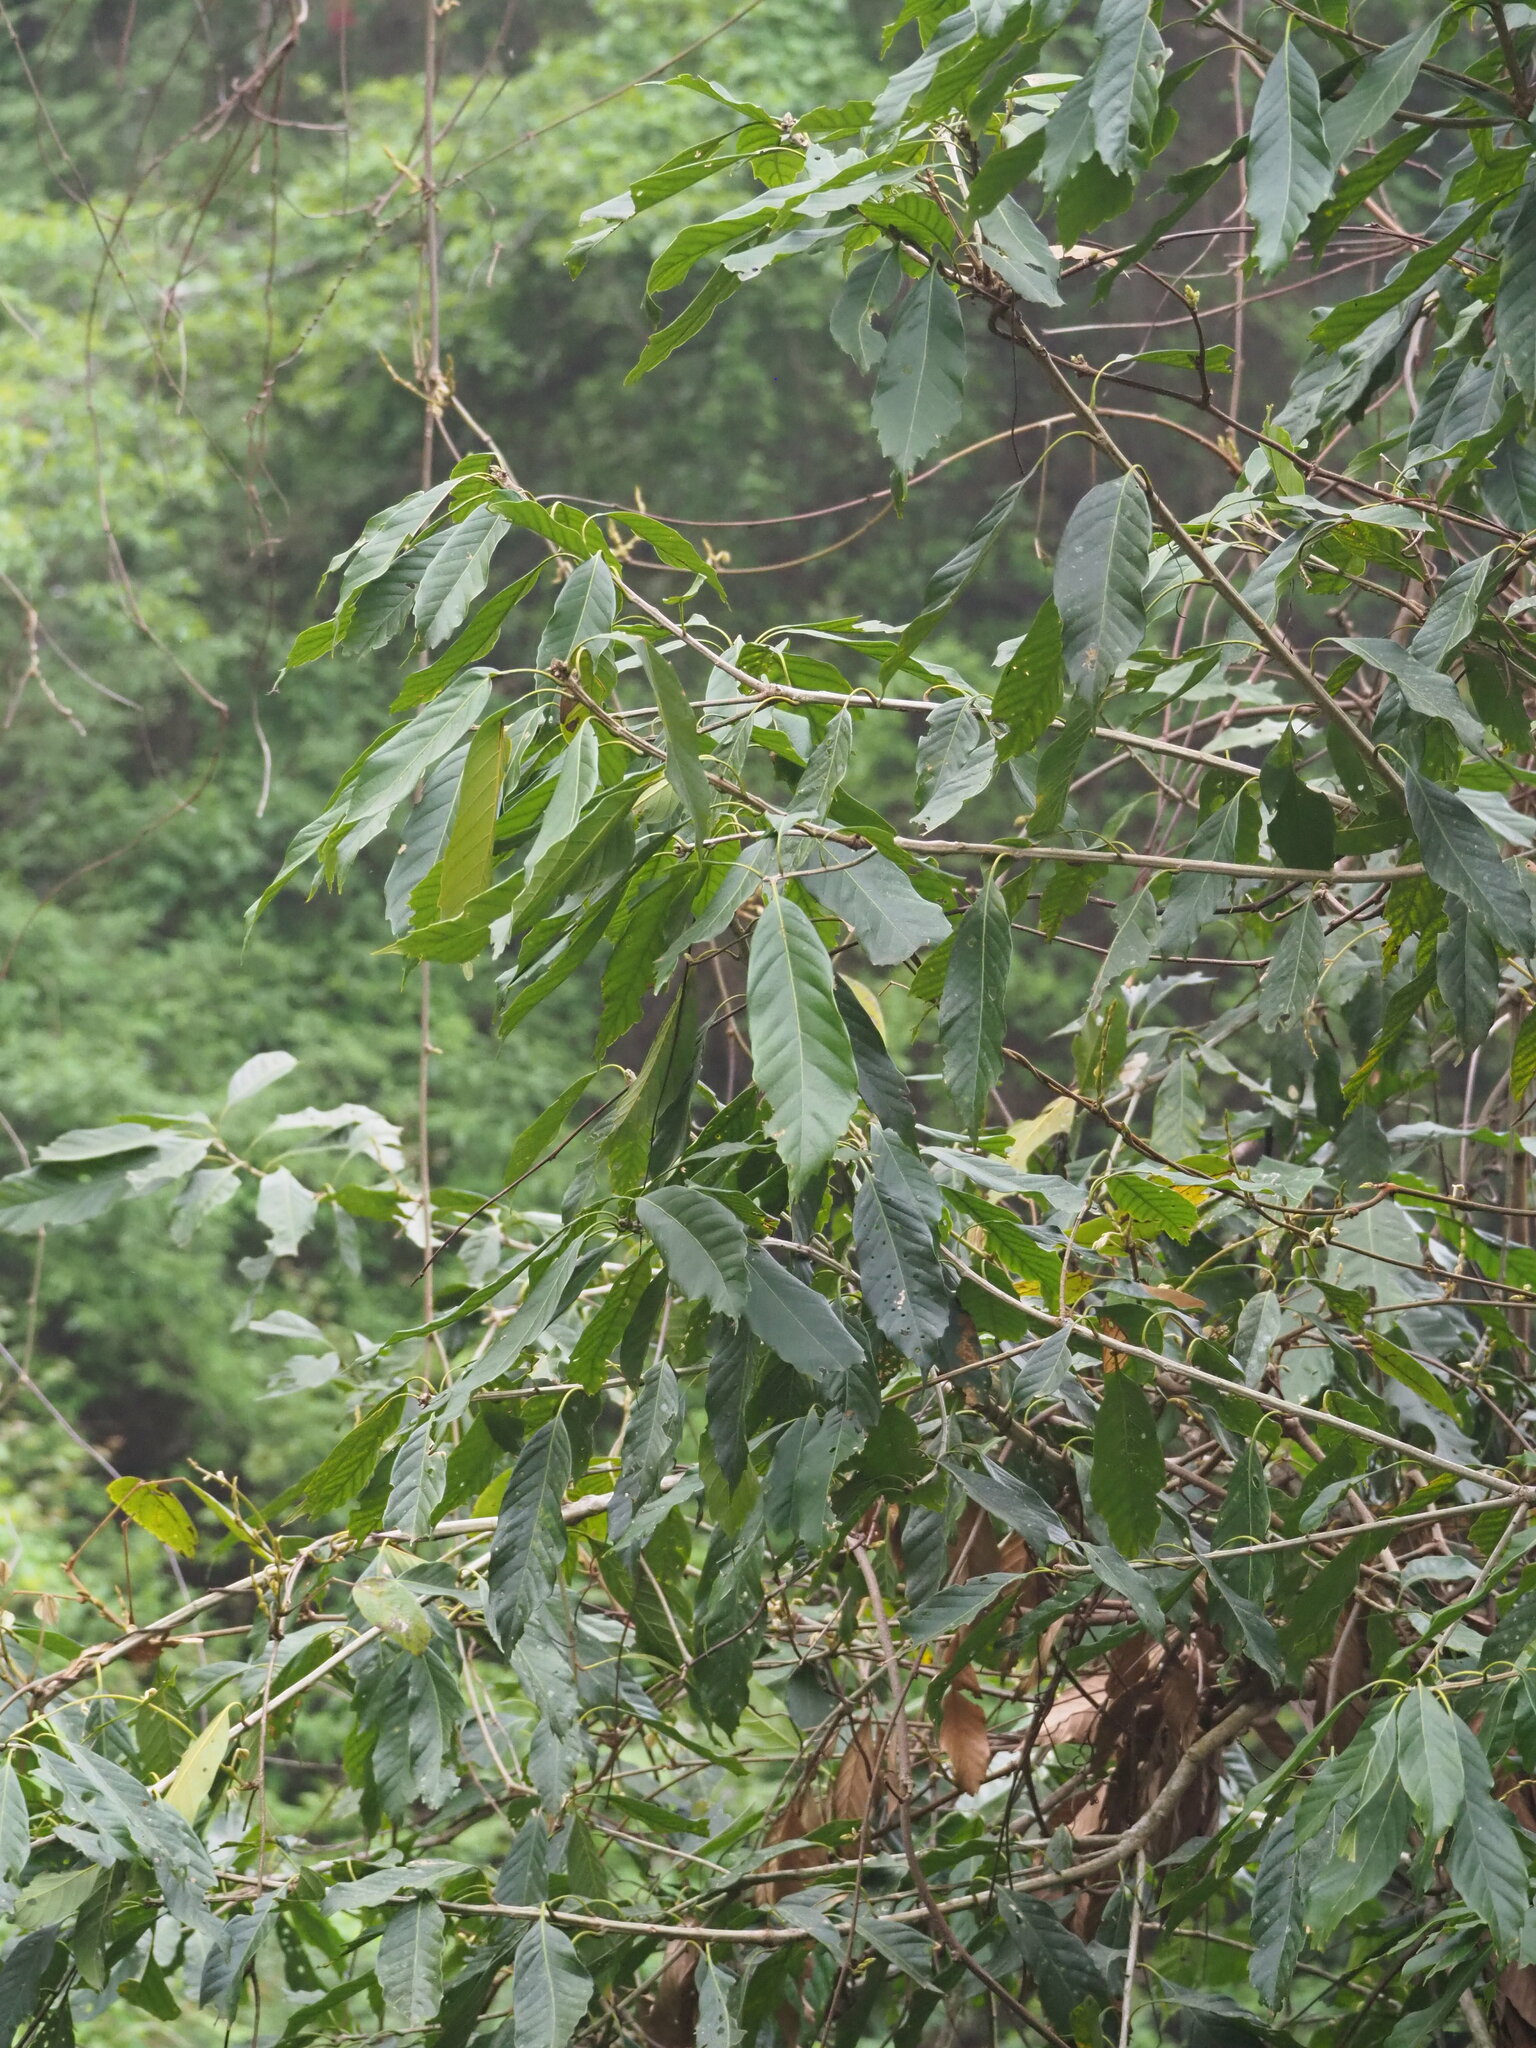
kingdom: Plantae
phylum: Tracheophyta
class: Magnoliopsida
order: Fagales
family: Fagaceae
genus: Lithocarpus
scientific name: Lithocarpus kawakamii
